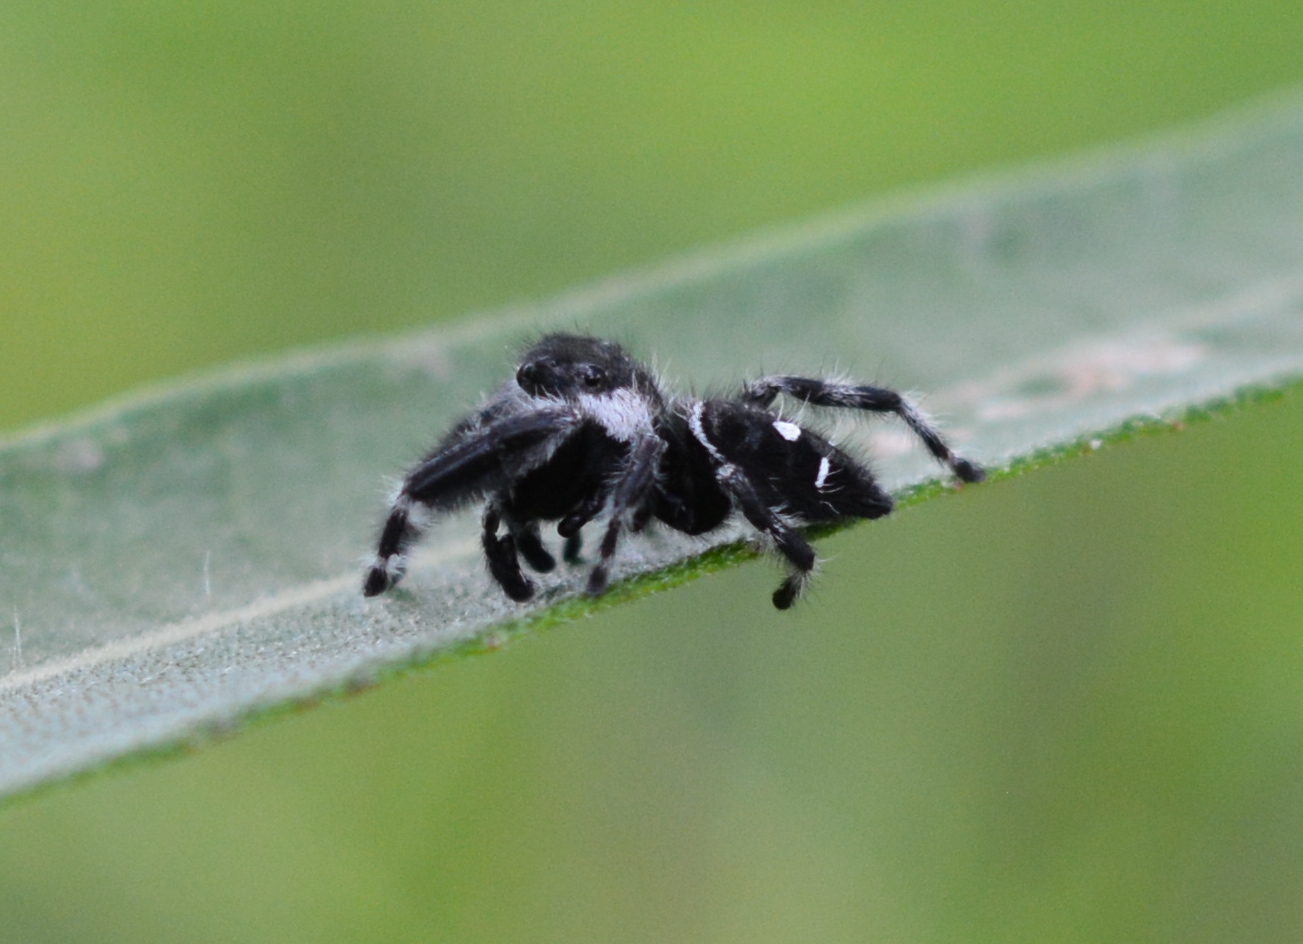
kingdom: Animalia
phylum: Arthropoda
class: Arachnida
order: Araneae
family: Salticidae
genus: Phidippus
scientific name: Phidippus audax
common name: Bold jumper
